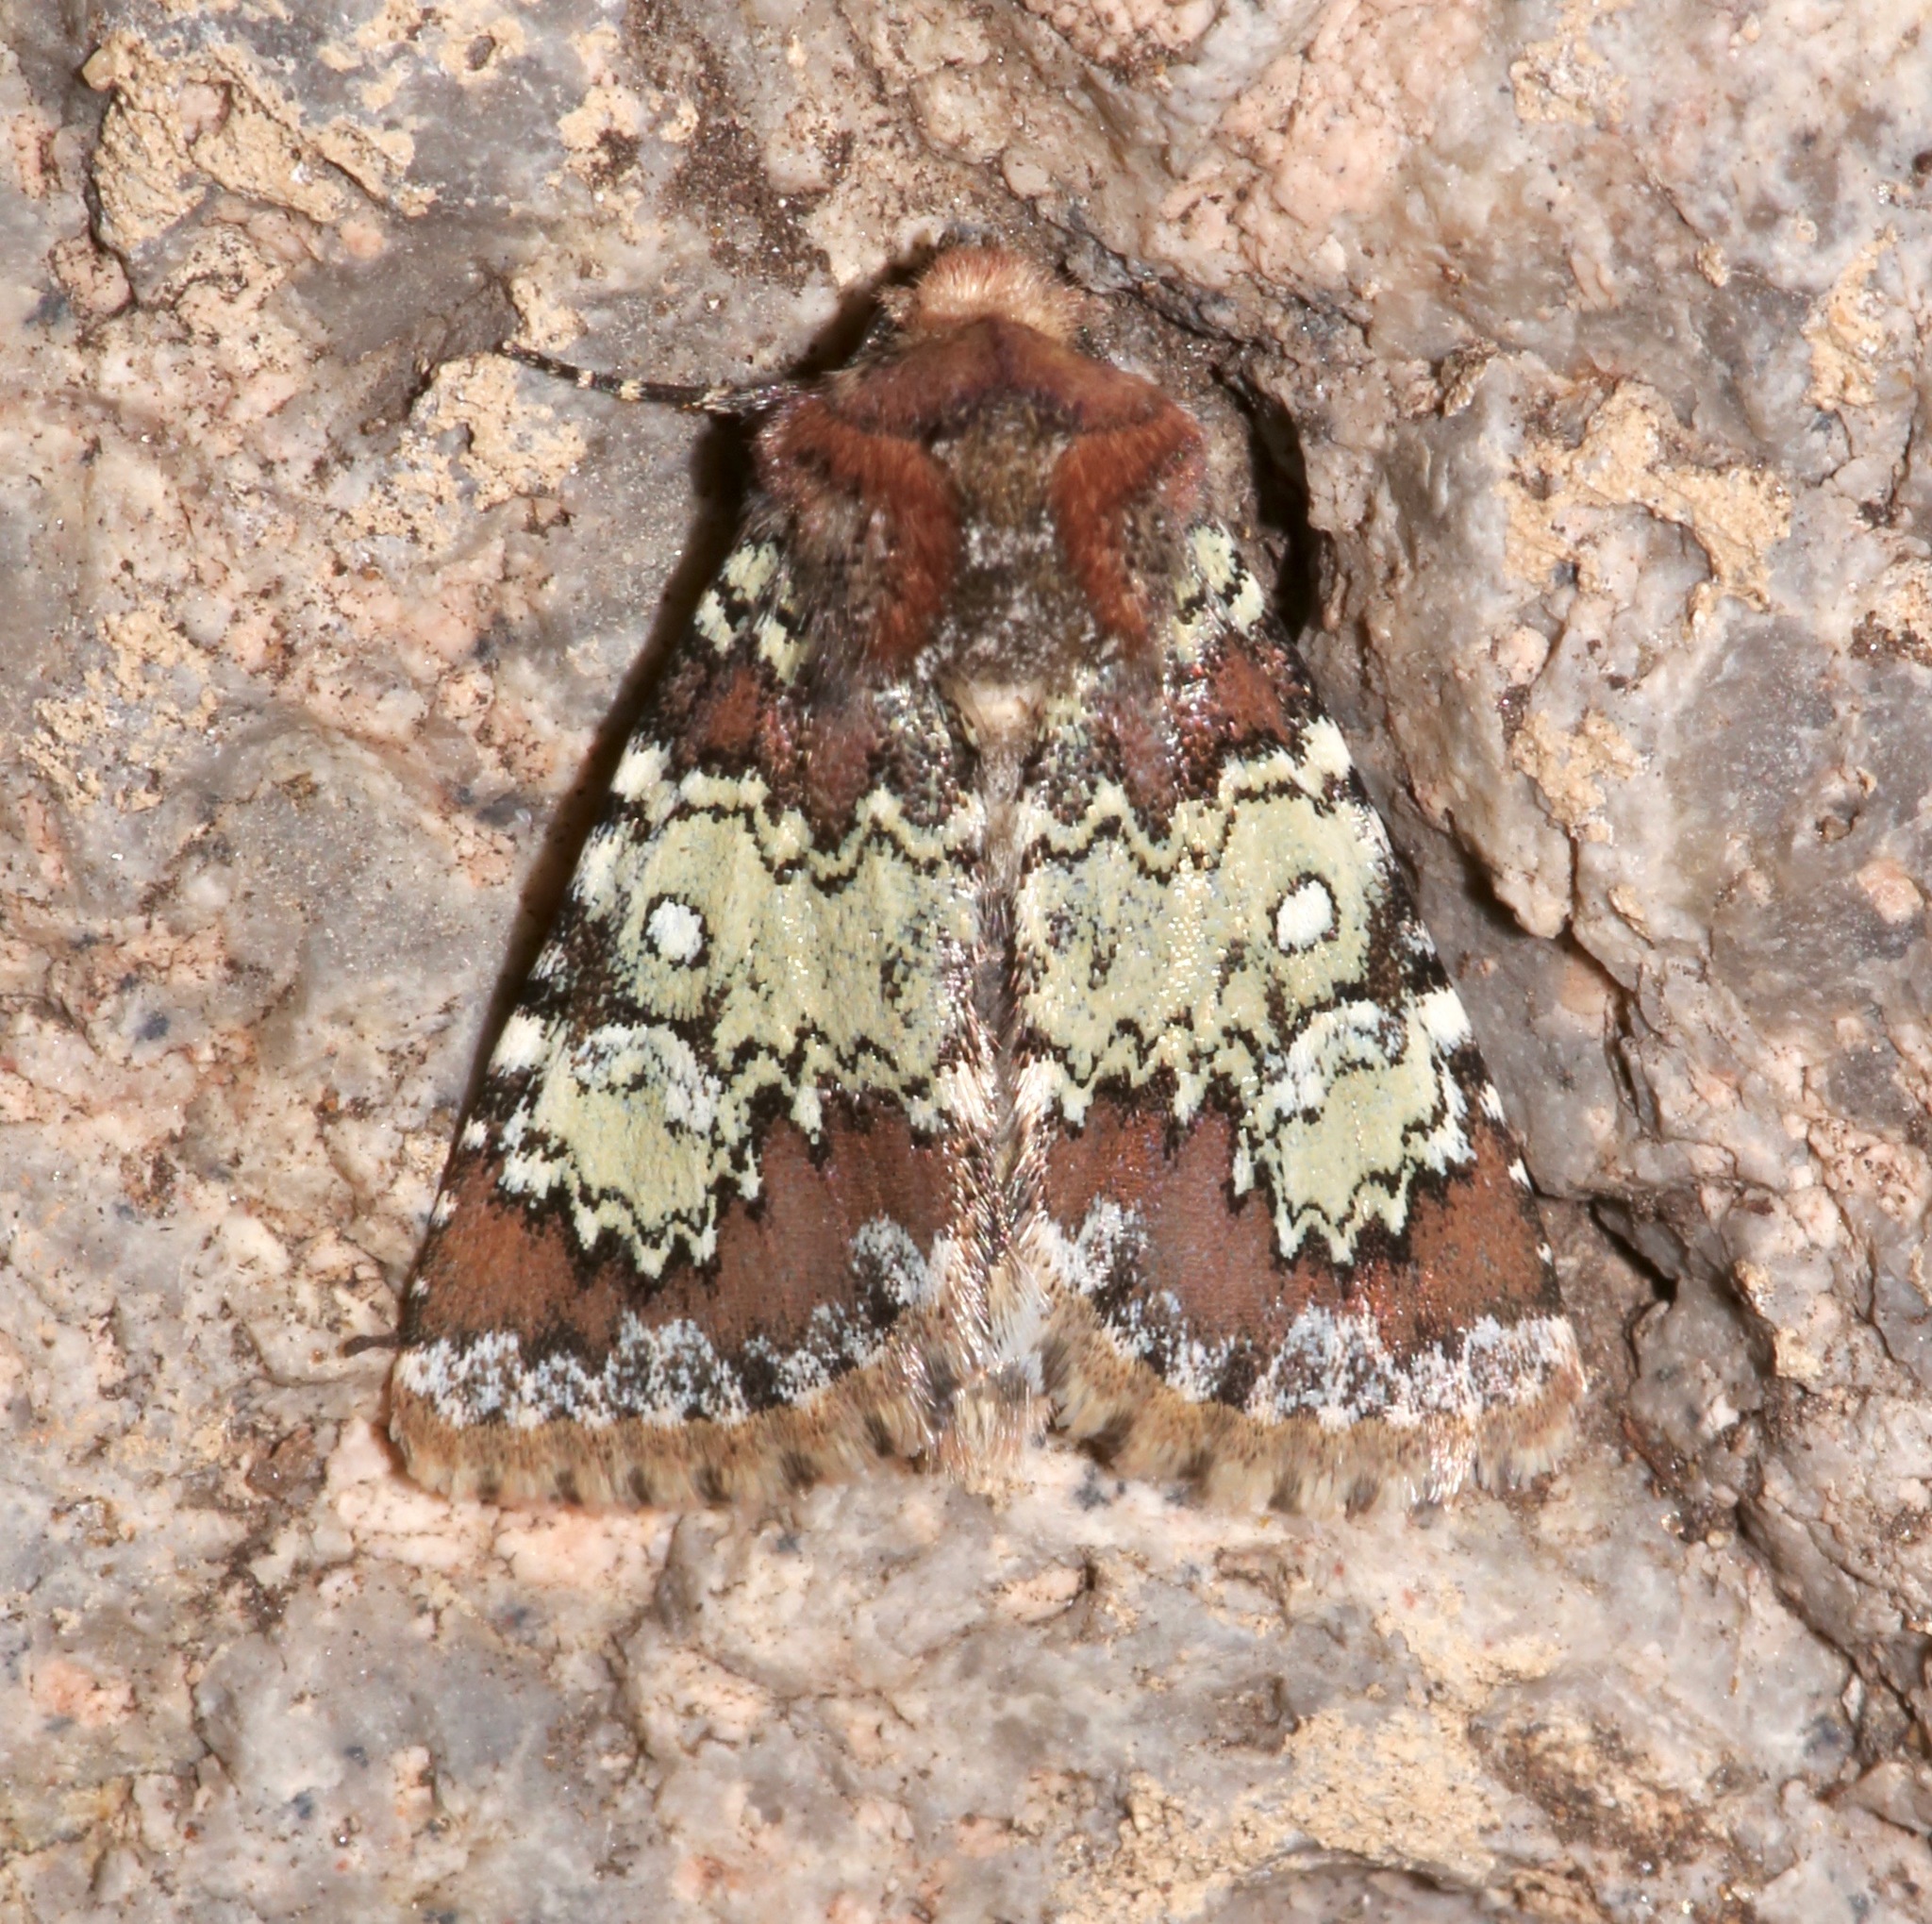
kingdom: Animalia
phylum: Arthropoda
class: Insecta
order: Lepidoptera
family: Noctuidae
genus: Hemibryomima
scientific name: Hemibryomima chryselectra
